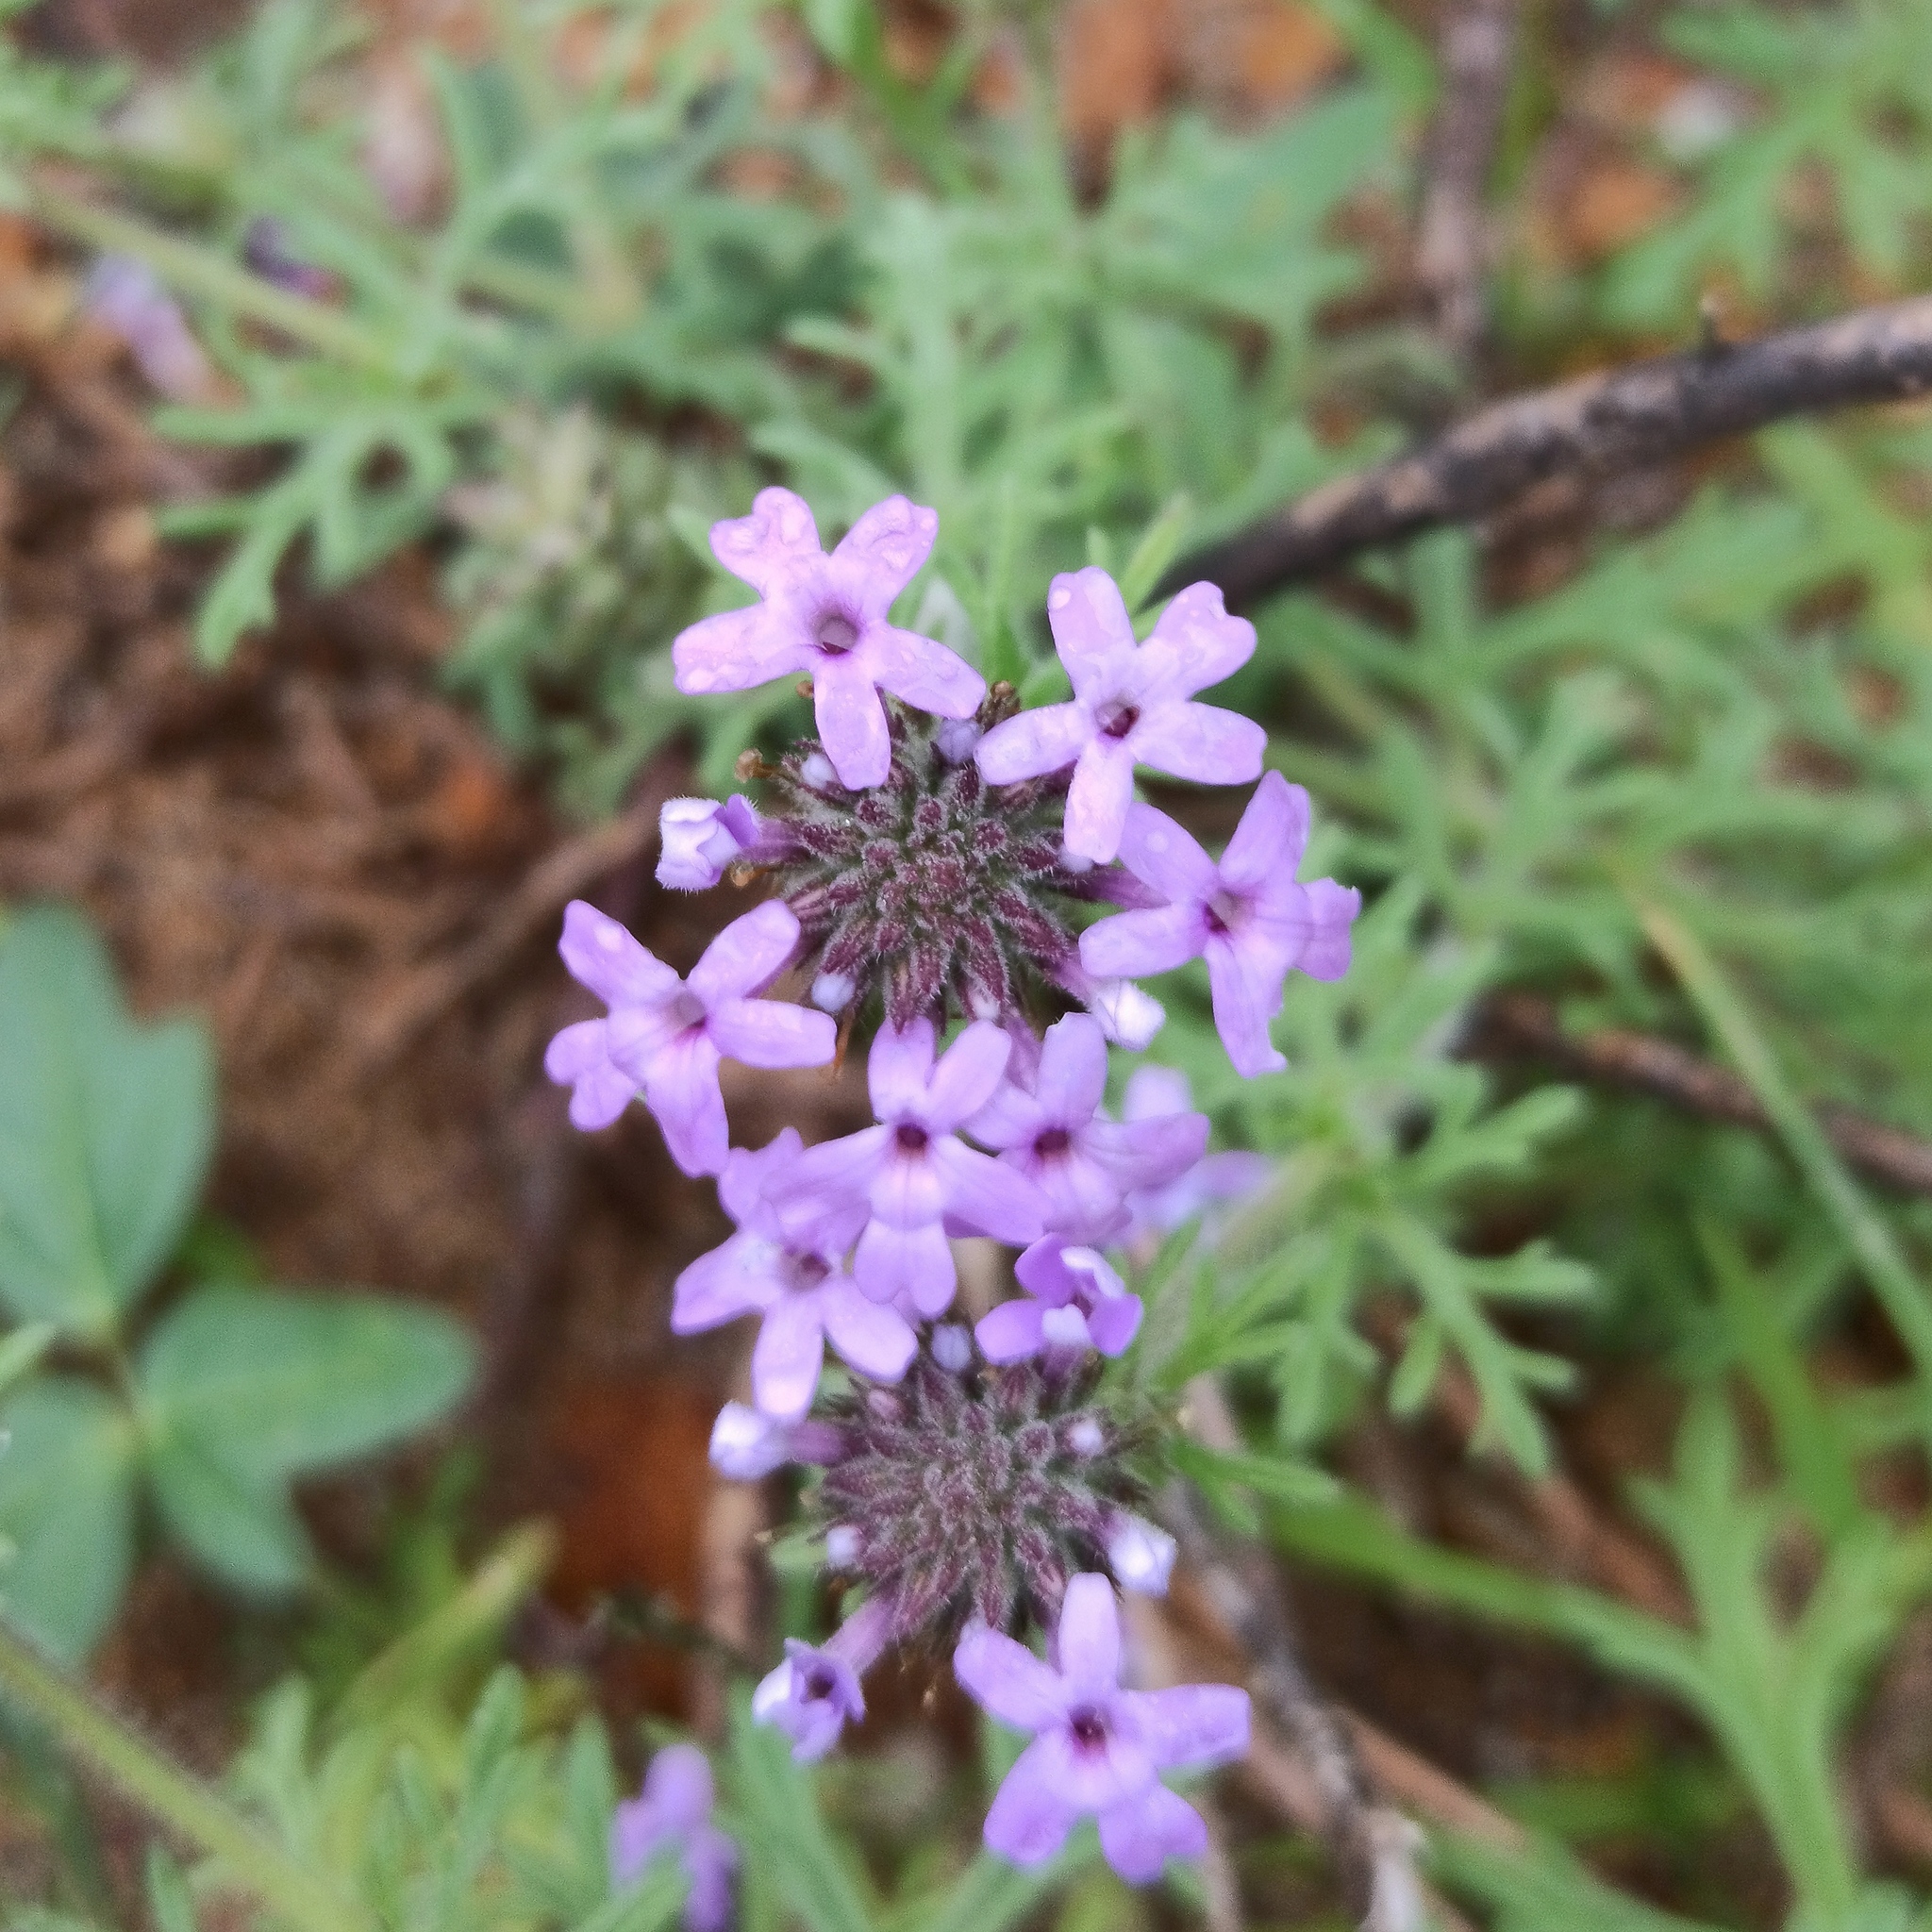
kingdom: Plantae
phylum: Tracheophyta
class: Magnoliopsida
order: Lamiales
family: Verbenaceae
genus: Verbena
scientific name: Verbena bipinnatifida
